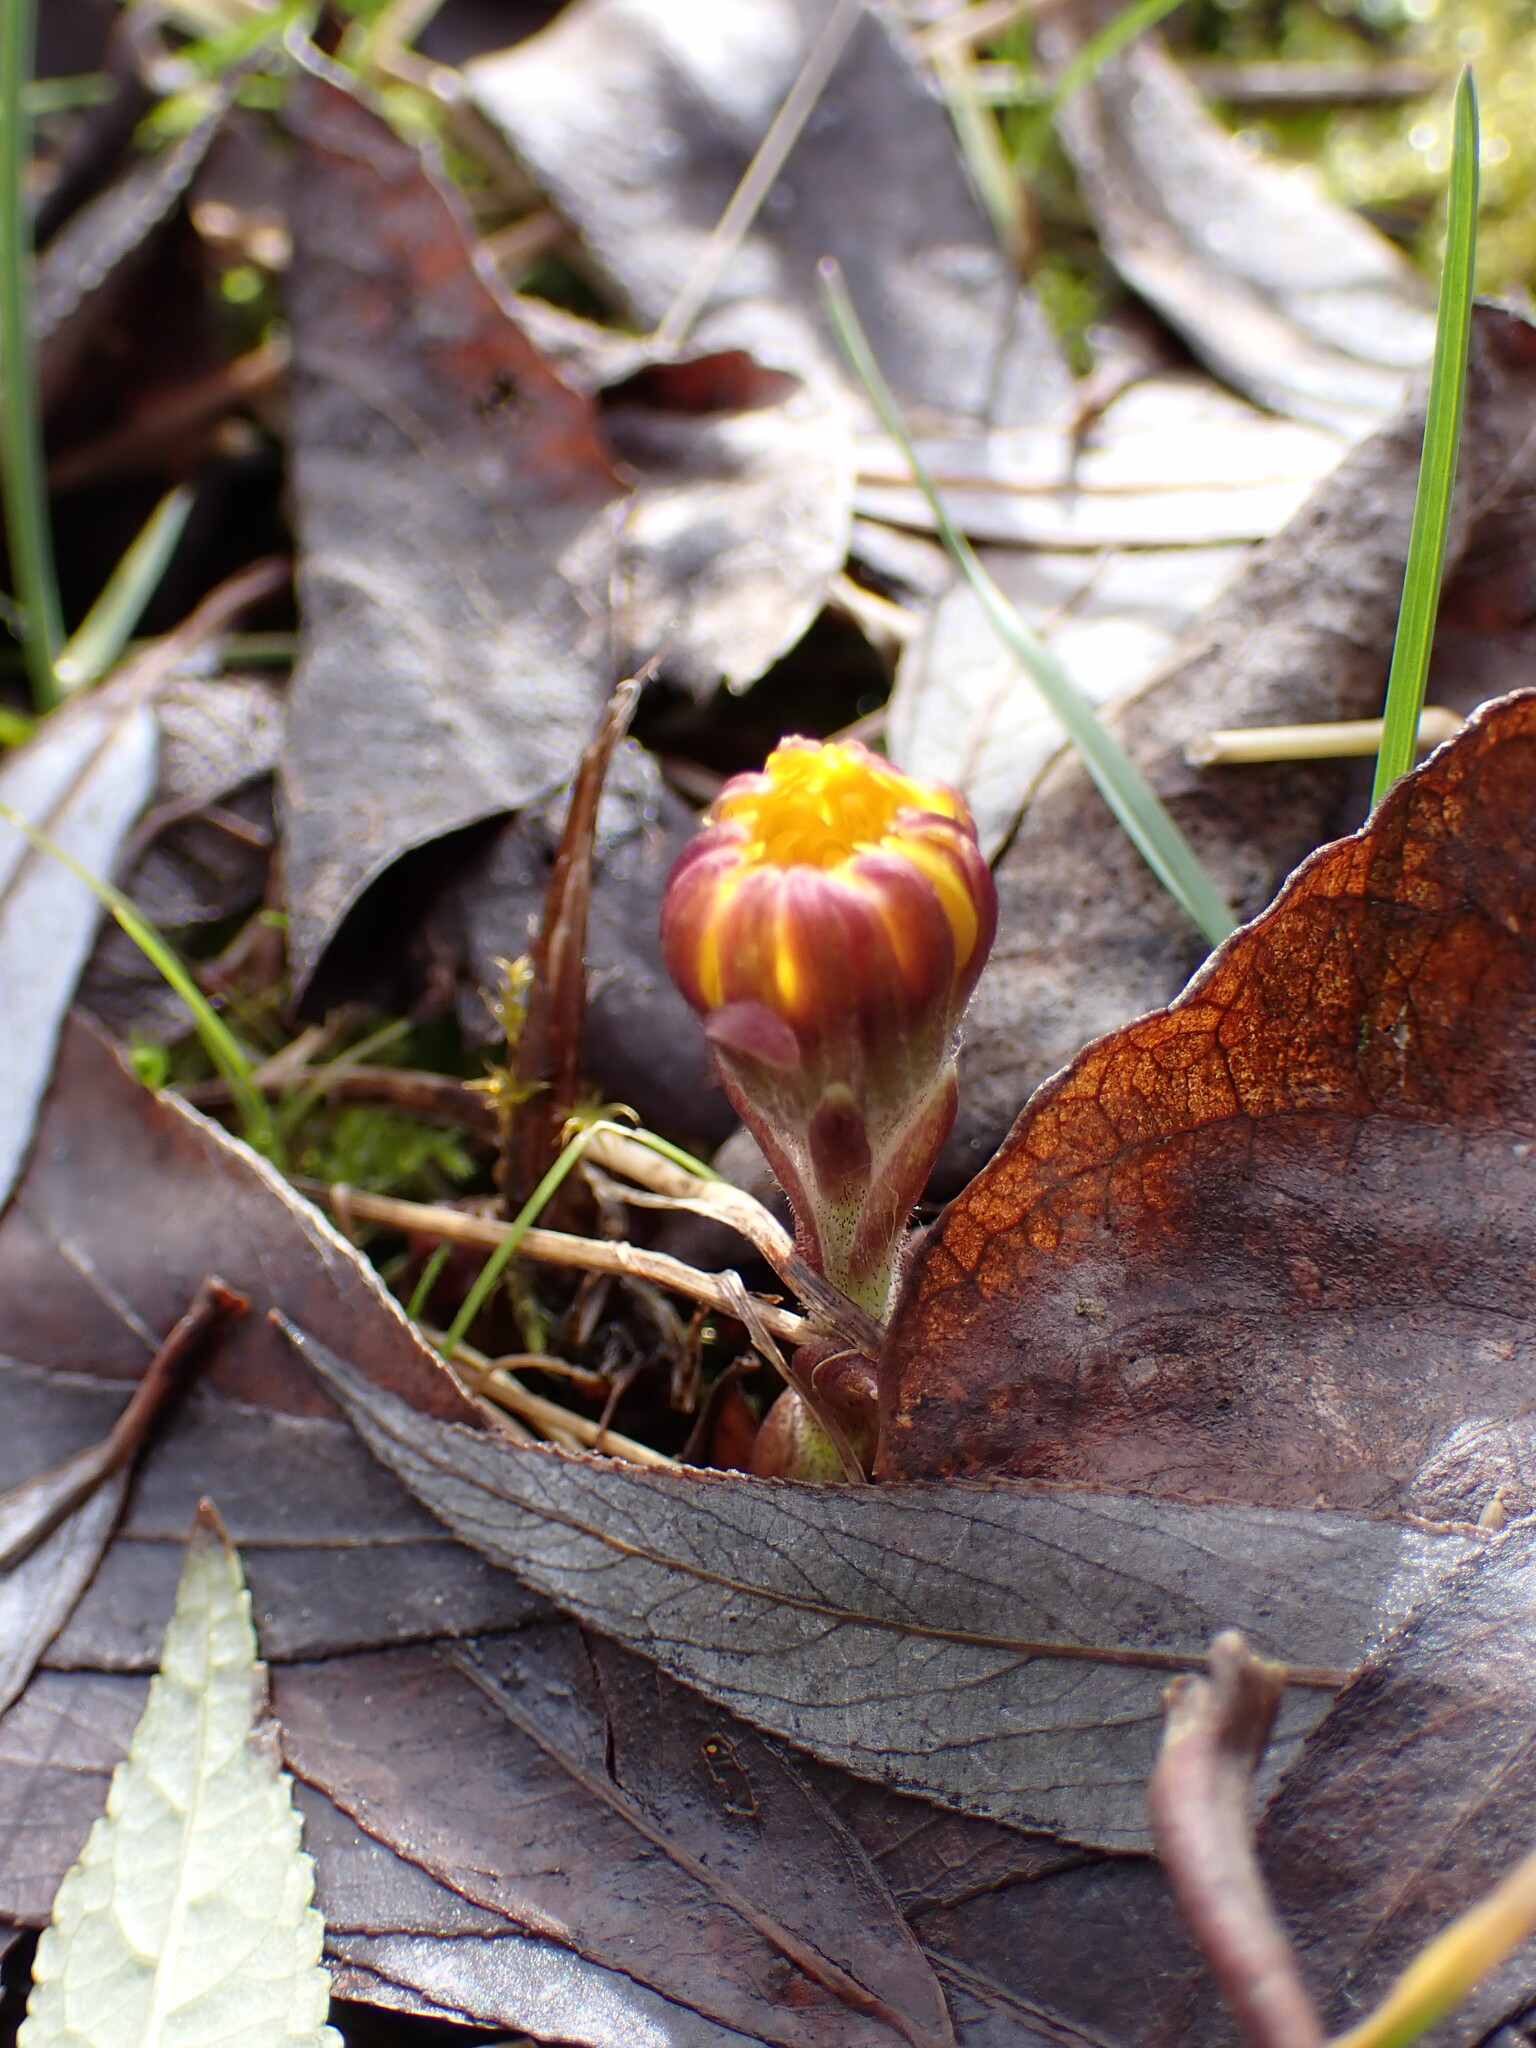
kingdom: Plantae
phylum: Tracheophyta
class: Magnoliopsida
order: Asterales
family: Asteraceae
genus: Tussilago
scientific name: Tussilago farfara
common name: Coltsfoot
